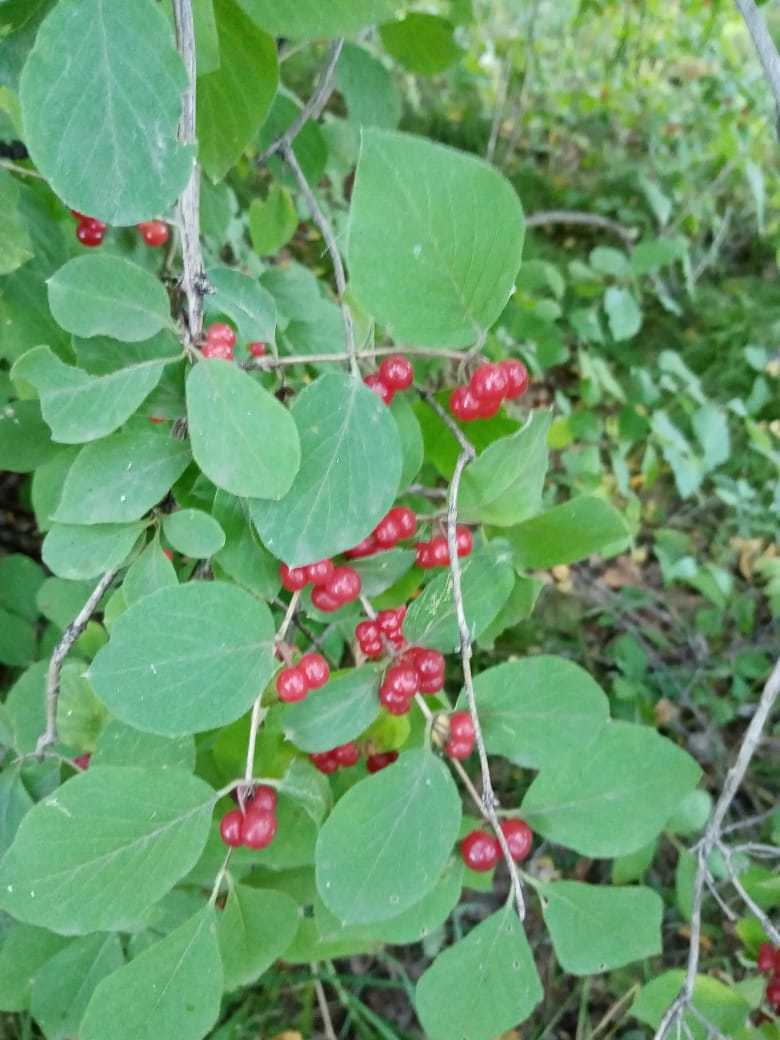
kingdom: Plantae
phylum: Tracheophyta
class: Magnoliopsida
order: Dipsacales
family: Caprifoliaceae
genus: Lonicera
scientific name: Lonicera xylosteum
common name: Fly honeysuckle
